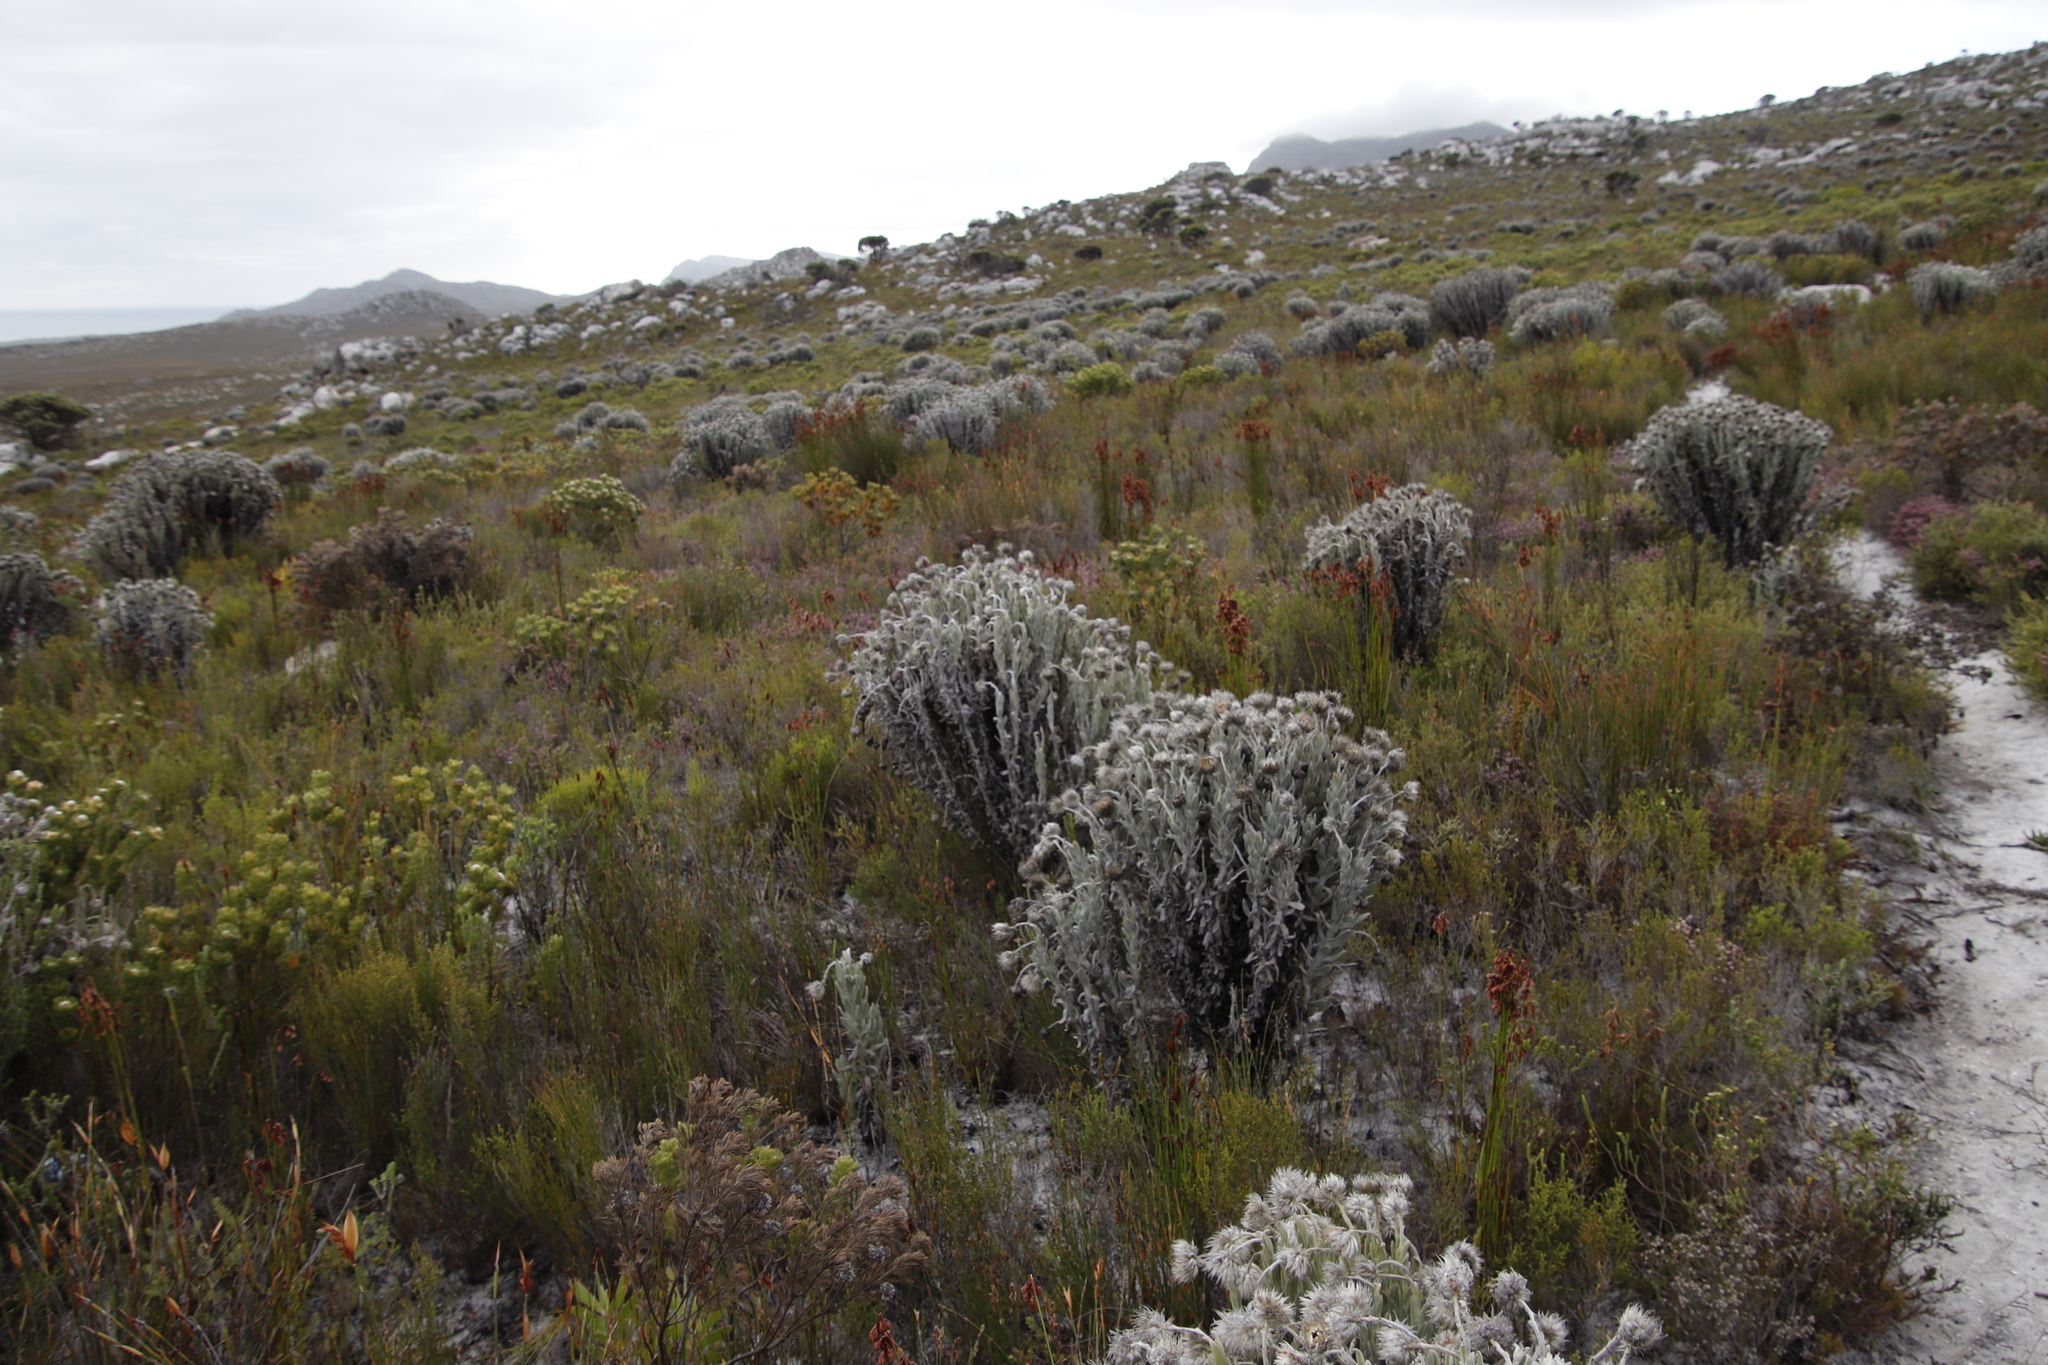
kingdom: Plantae
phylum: Tracheophyta
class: Magnoliopsida
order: Asterales
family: Asteraceae
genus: Syncarpha
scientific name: Syncarpha vestita
